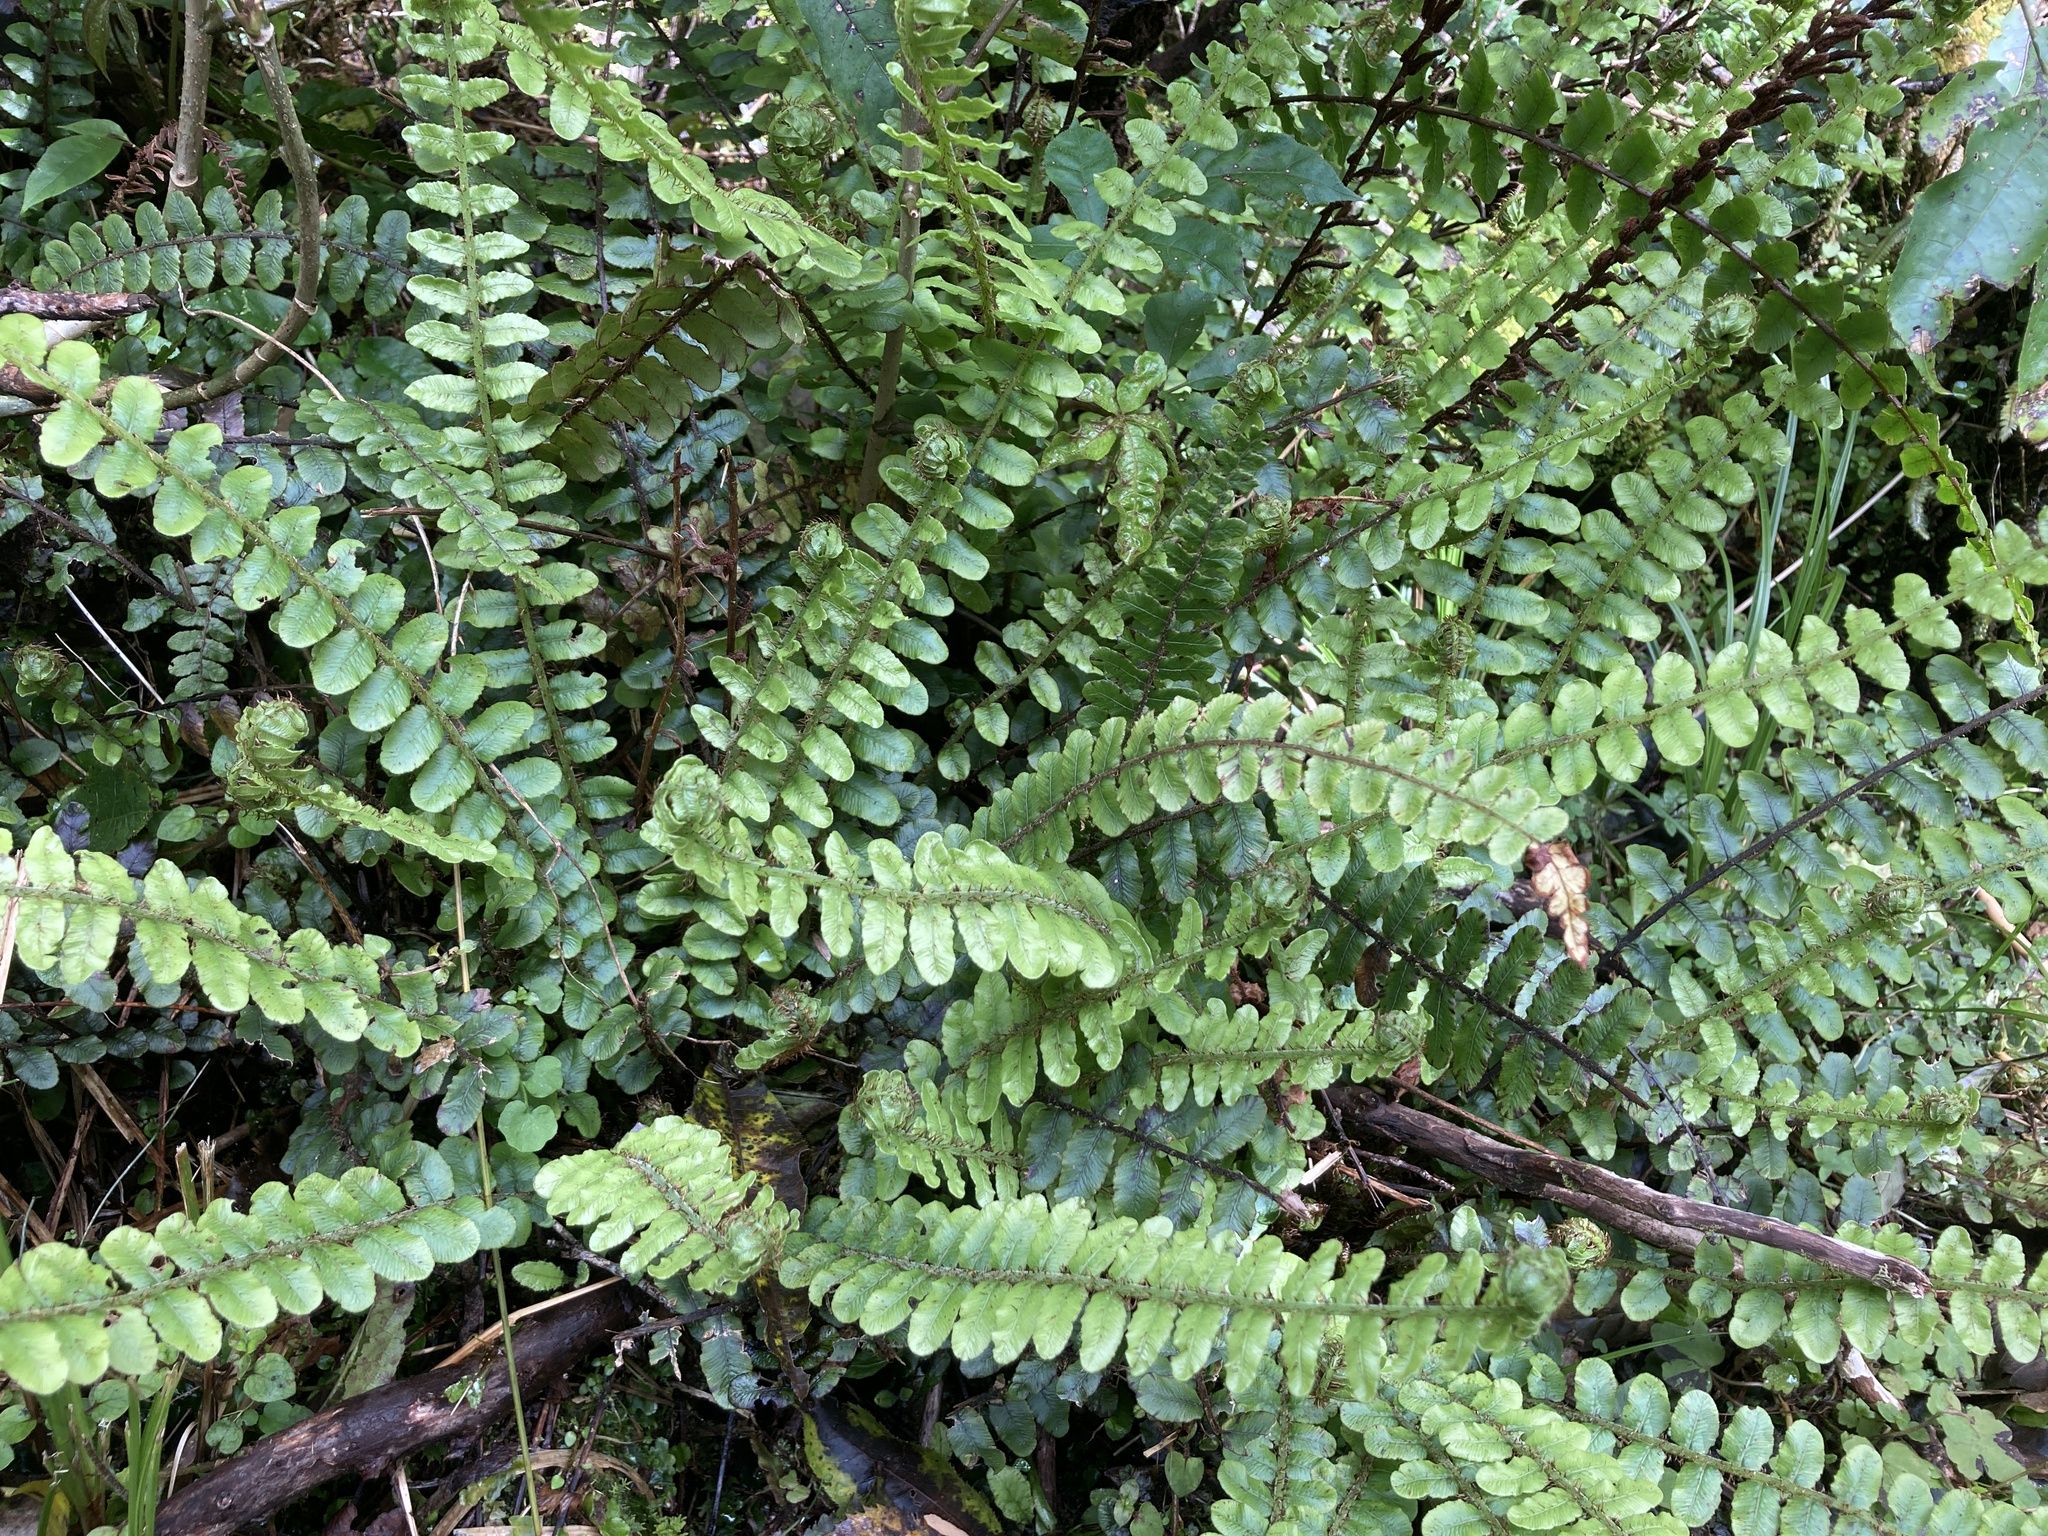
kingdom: Plantae
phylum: Tracheophyta
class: Polypodiopsida
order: Polypodiales
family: Blechnaceae
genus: Cranfillia
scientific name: Cranfillia fluviatilis
